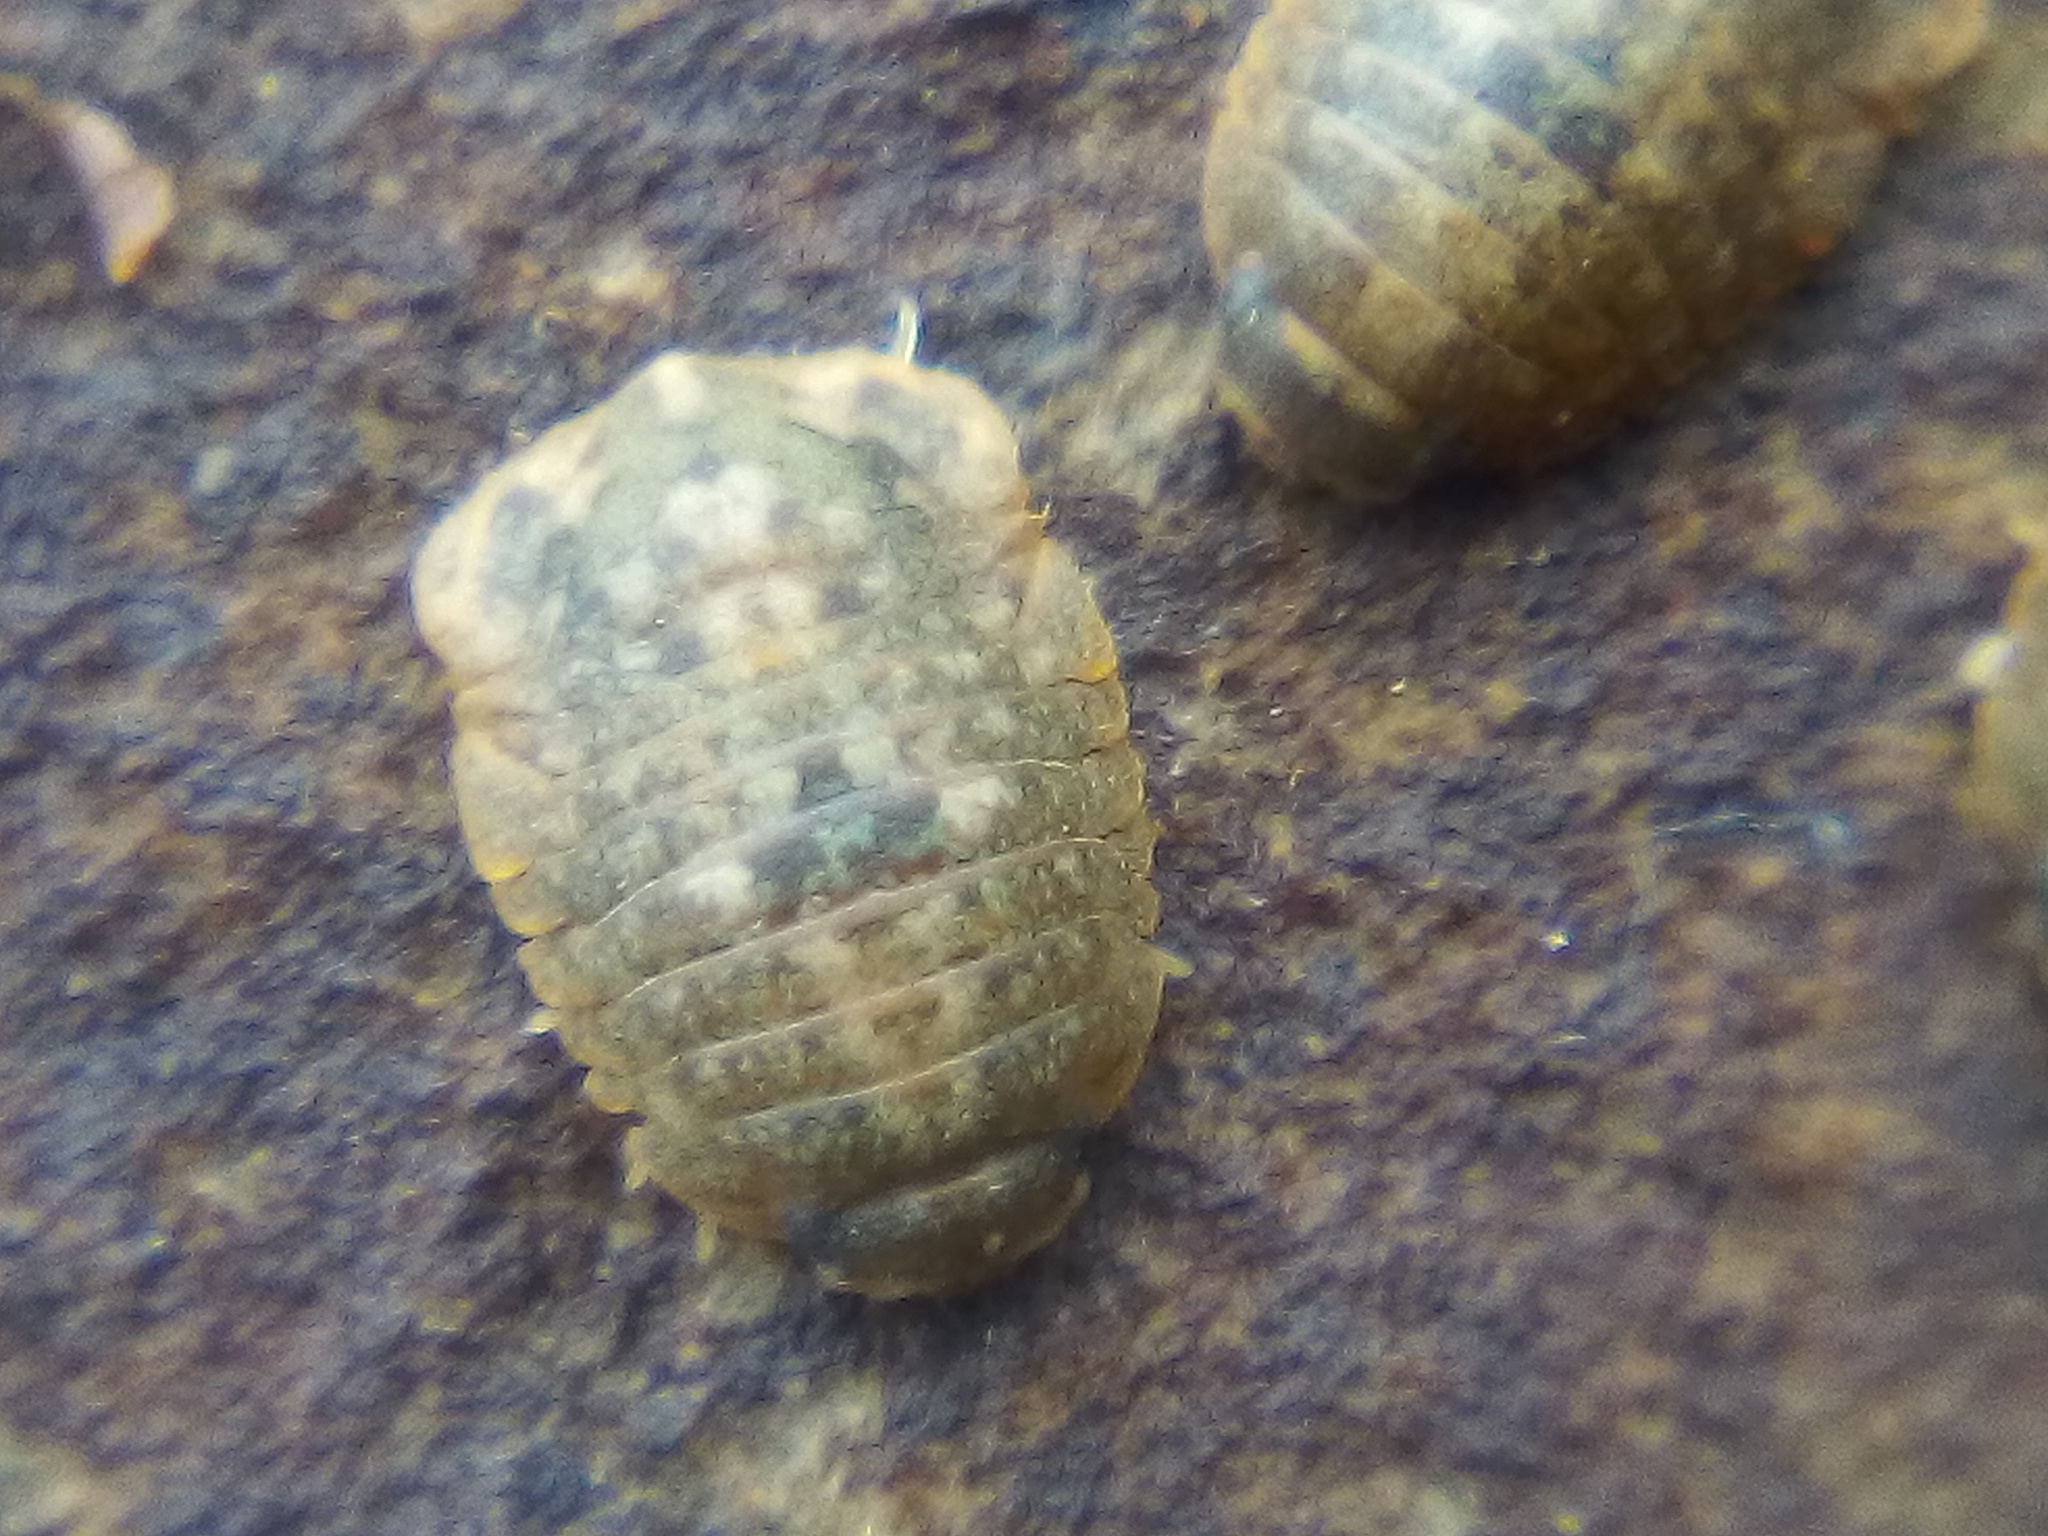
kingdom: Animalia
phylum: Arthropoda
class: Malacostraca
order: Isopoda
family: Sphaeromatidae
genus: Exosphaeroma
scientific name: Exosphaeroma planulum
